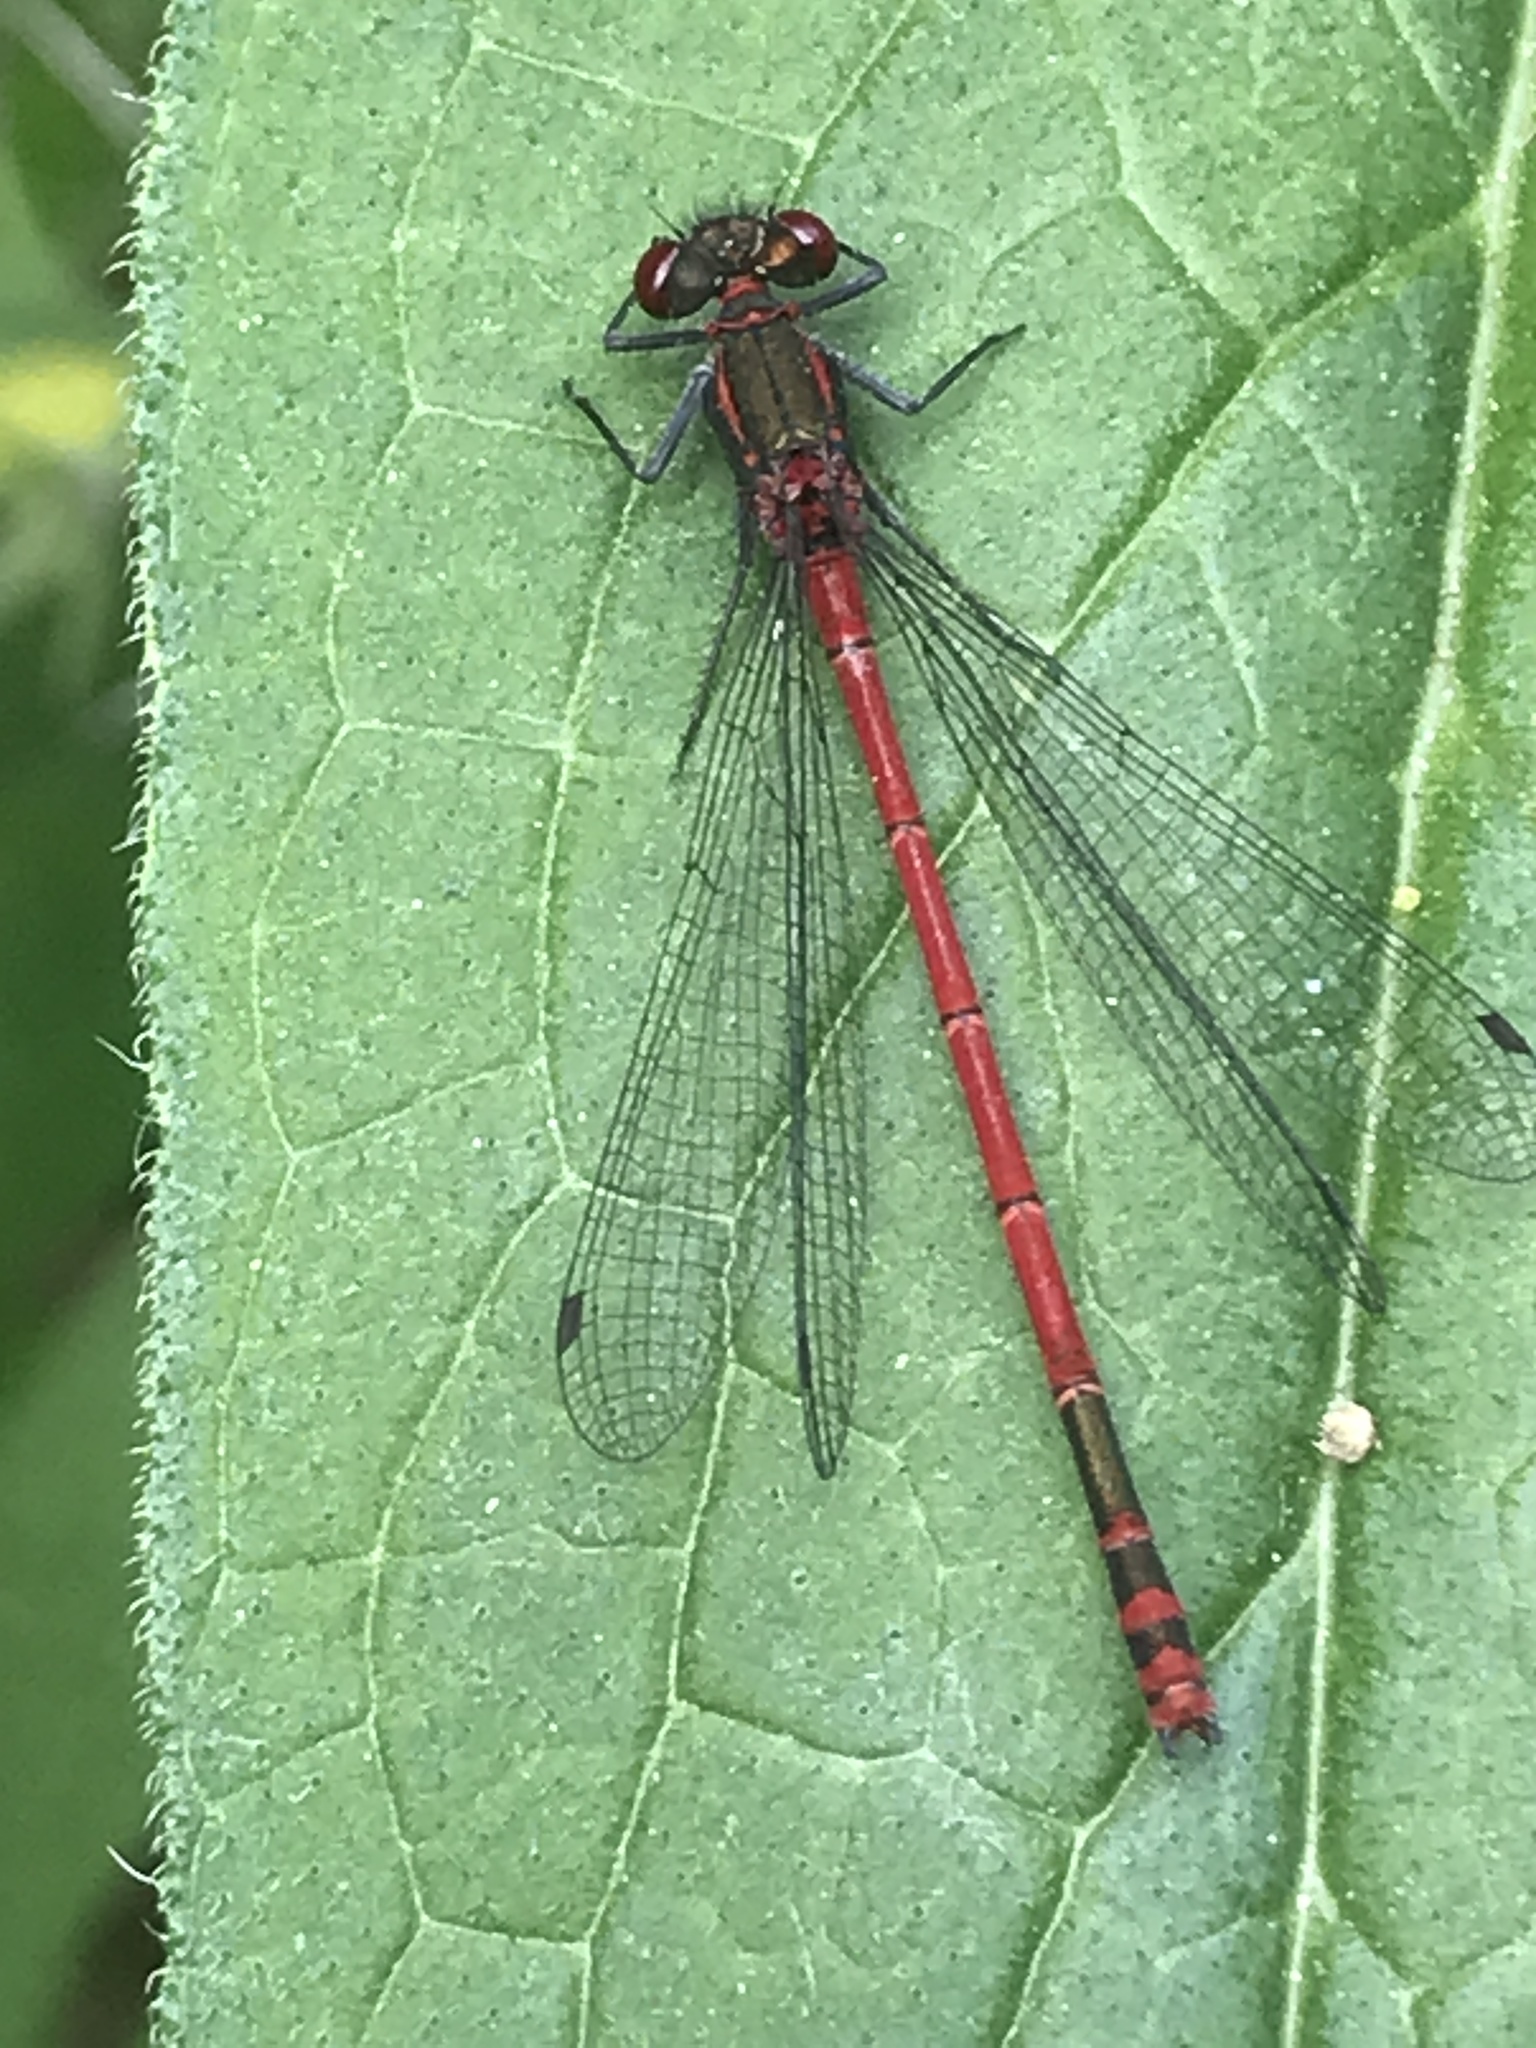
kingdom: Animalia
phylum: Arthropoda
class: Insecta
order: Odonata
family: Coenagrionidae
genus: Pyrrhosoma
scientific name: Pyrrhosoma nymphula
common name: Large red damsel
